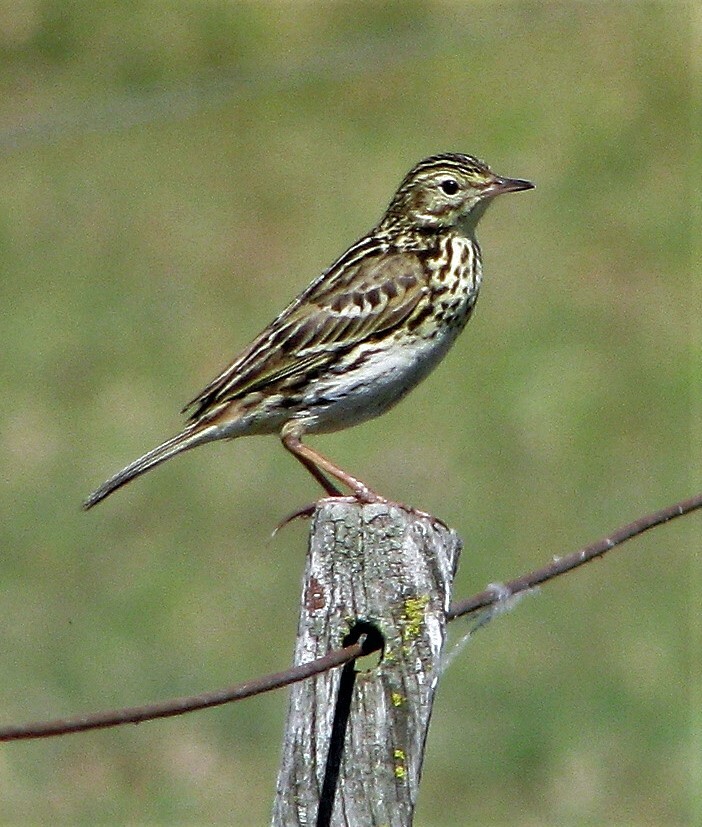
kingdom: Animalia
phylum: Chordata
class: Aves
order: Passeriformes
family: Motacillidae
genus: Anthus
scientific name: Anthus correndera
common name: Correndera pipit
